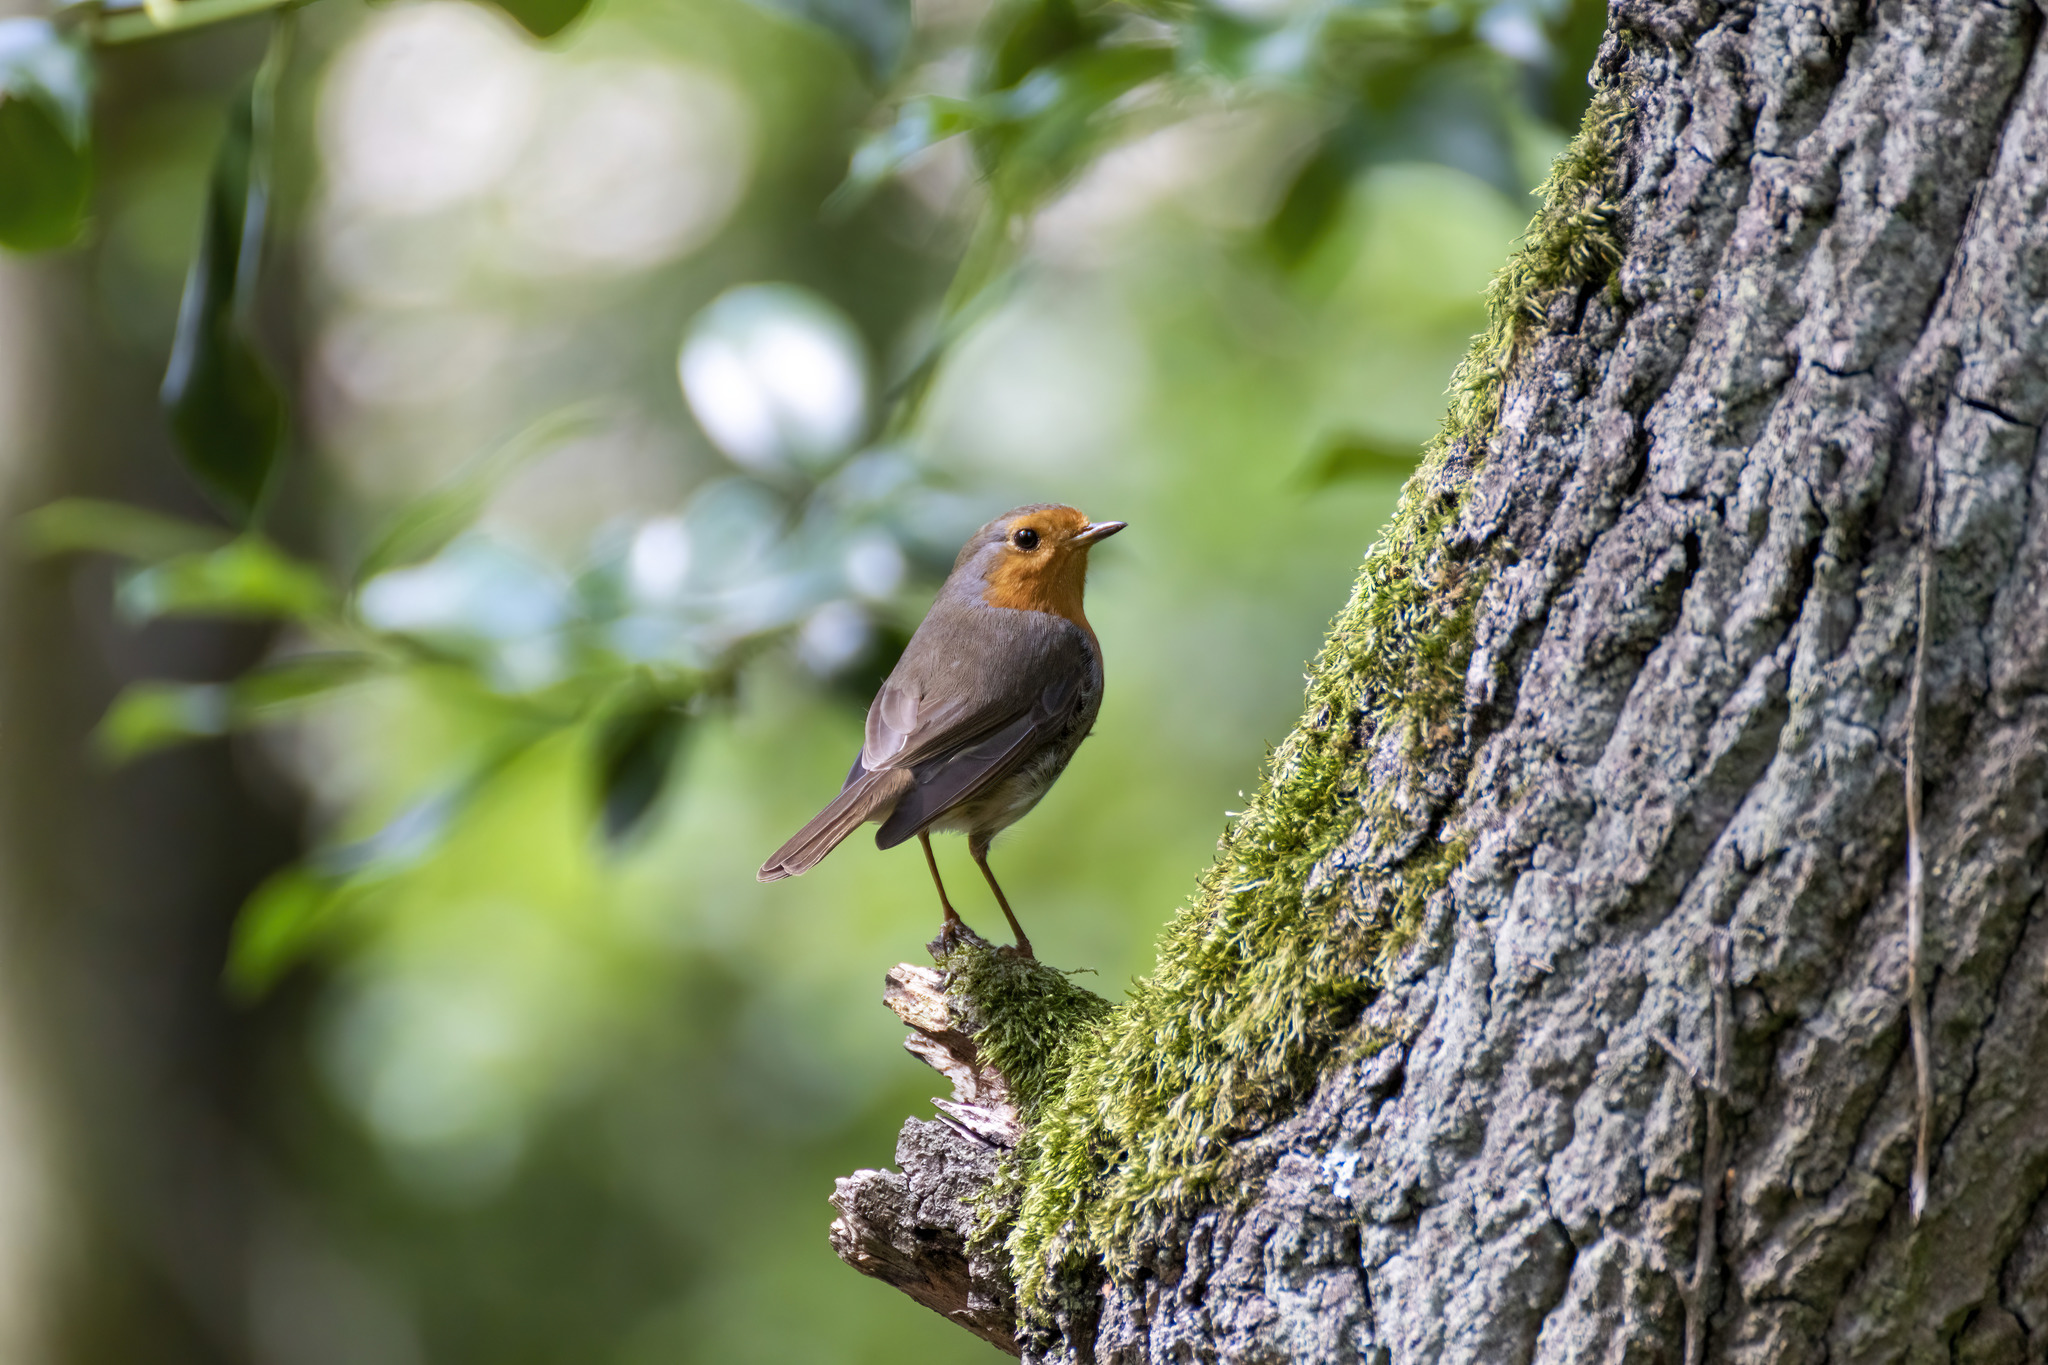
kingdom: Animalia
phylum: Chordata
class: Aves
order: Passeriformes
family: Muscicapidae
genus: Erithacus
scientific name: Erithacus rubecula
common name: European robin
